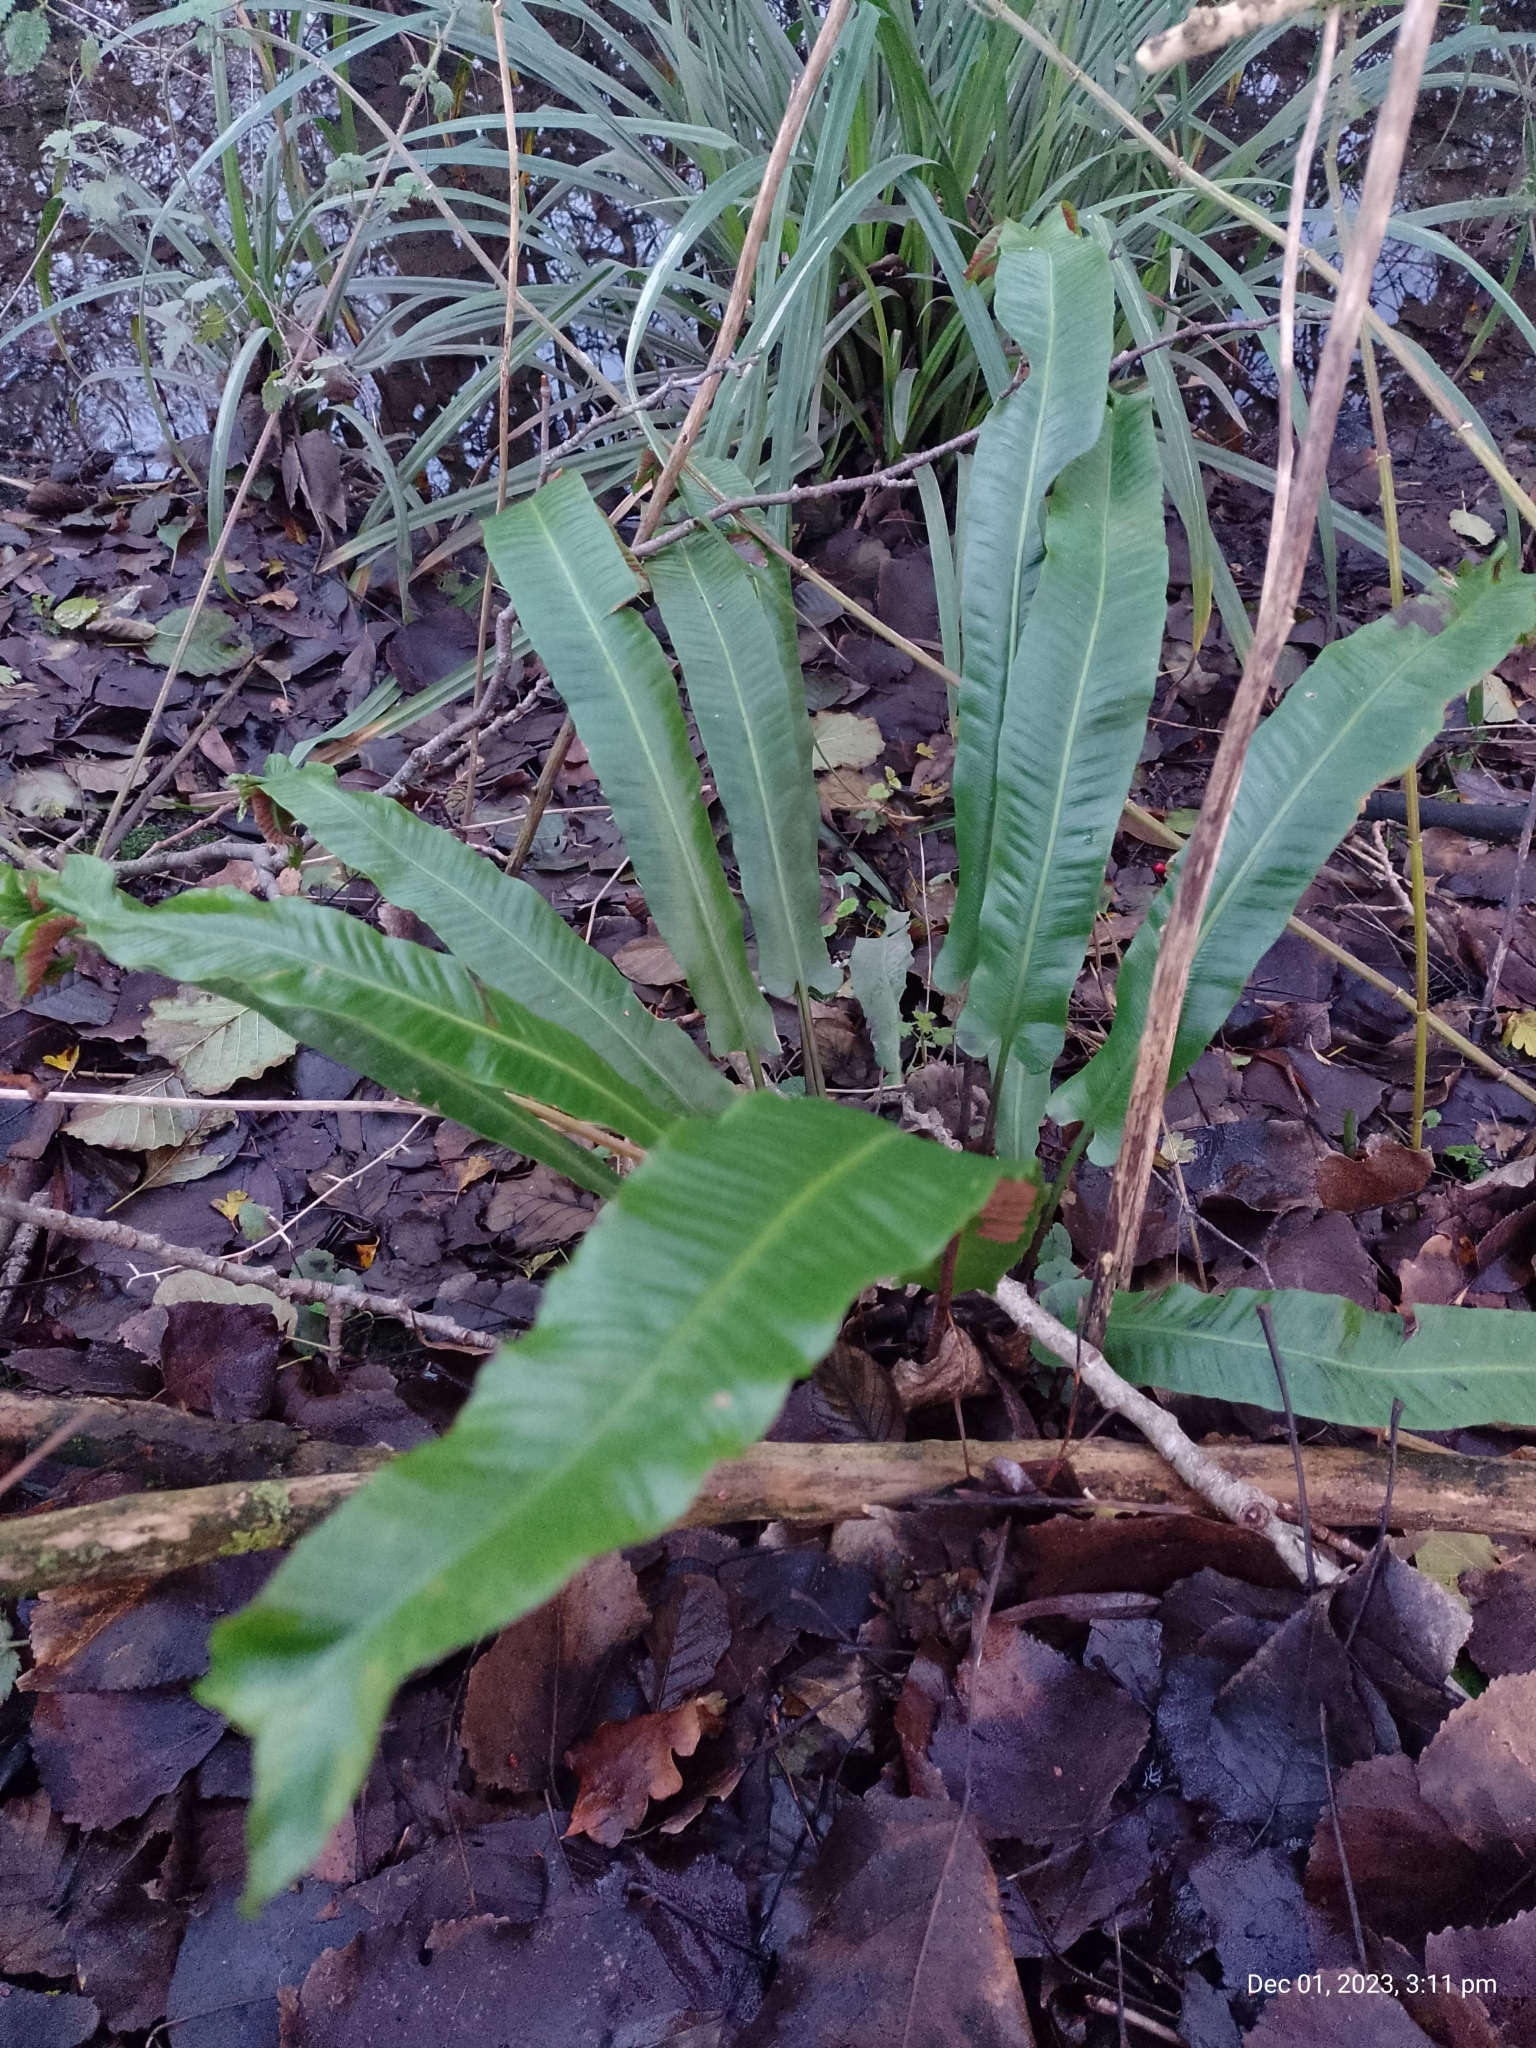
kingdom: Plantae
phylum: Tracheophyta
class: Polypodiopsida
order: Polypodiales
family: Aspleniaceae
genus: Asplenium
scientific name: Asplenium scolopendrium
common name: Hart's-tongue fern
